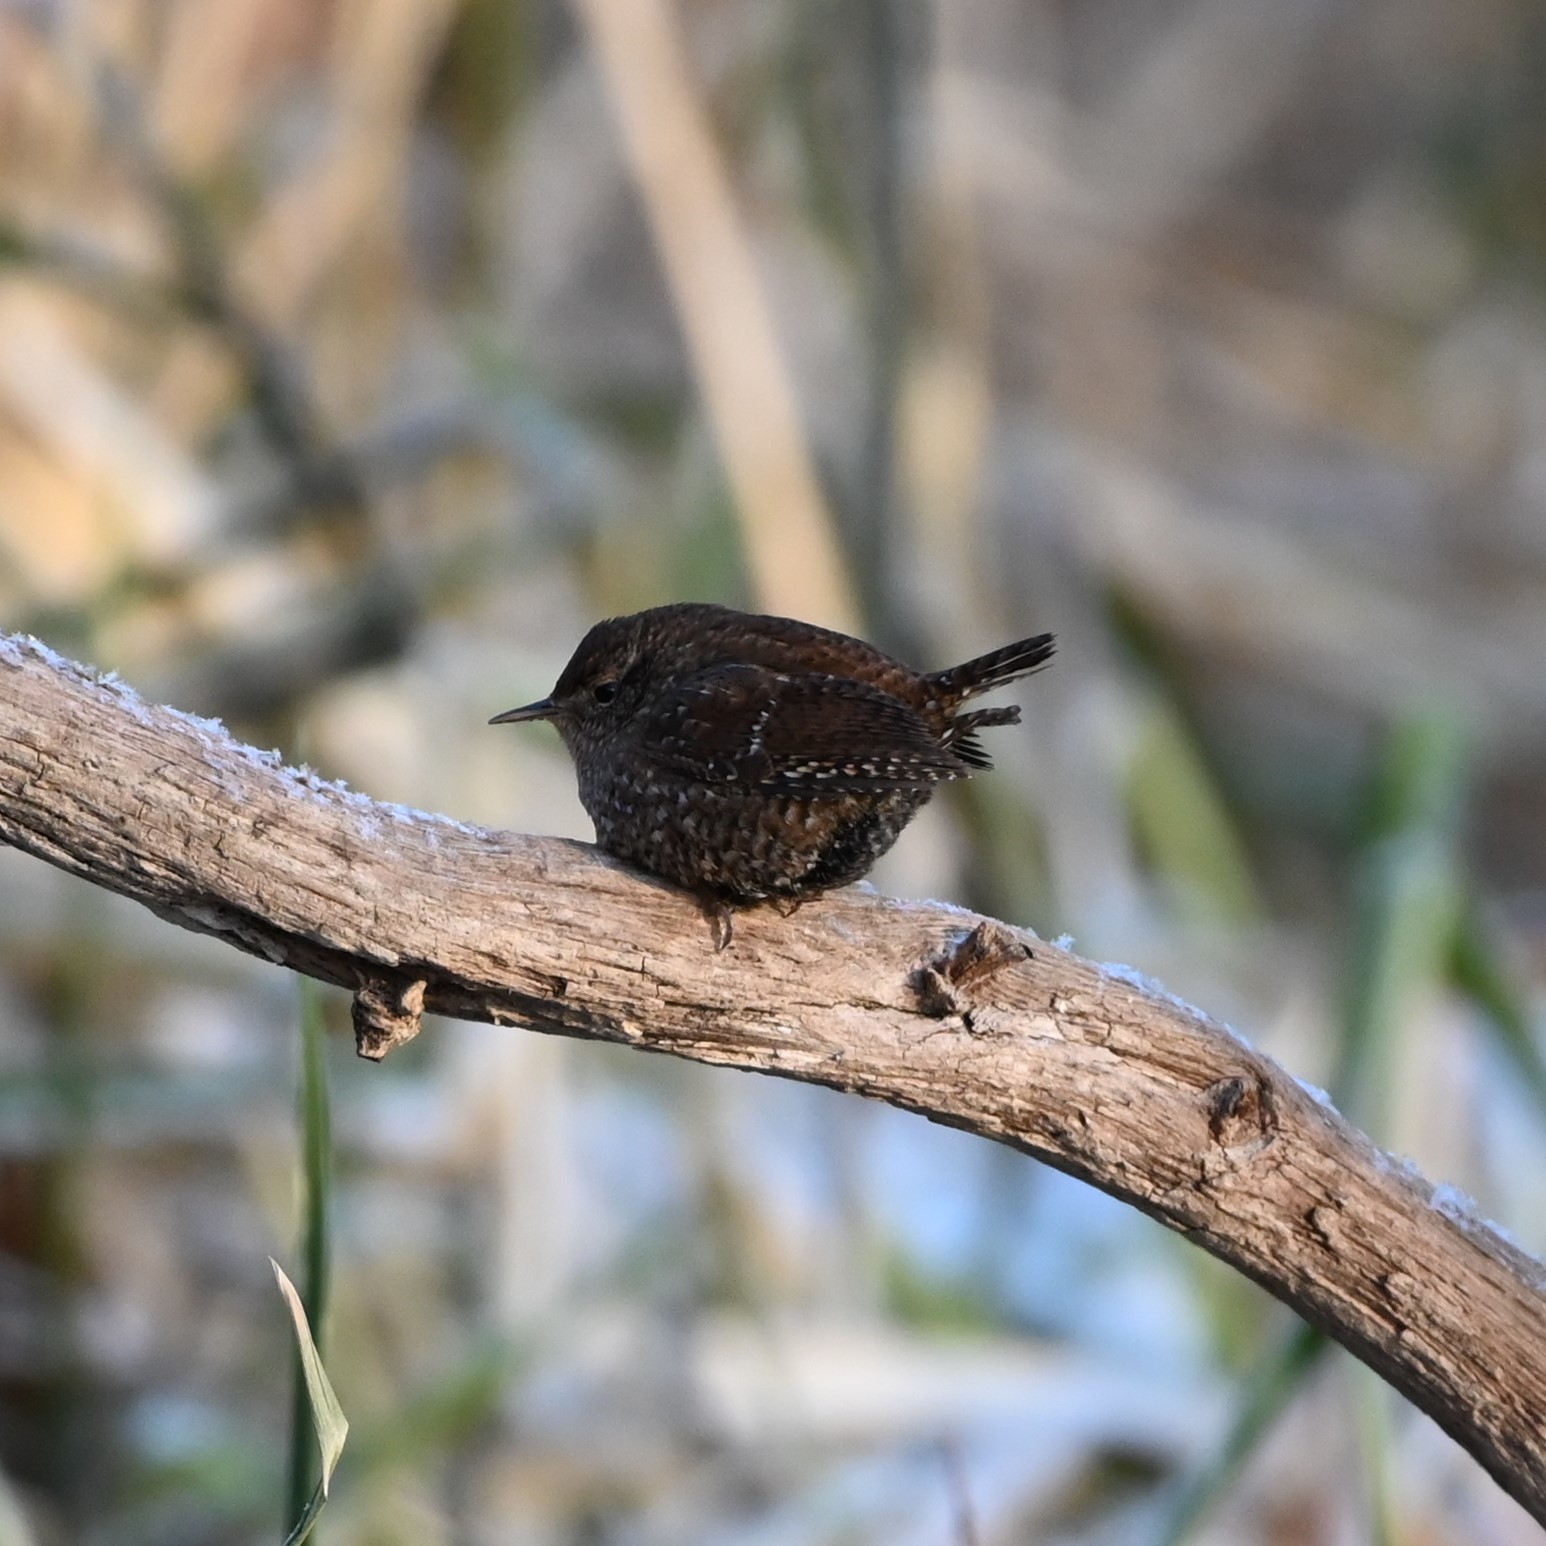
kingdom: Animalia
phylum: Chordata
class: Aves
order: Passeriformes
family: Troglodytidae
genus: Troglodytes
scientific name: Troglodytes hiemalis
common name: Winter wren
